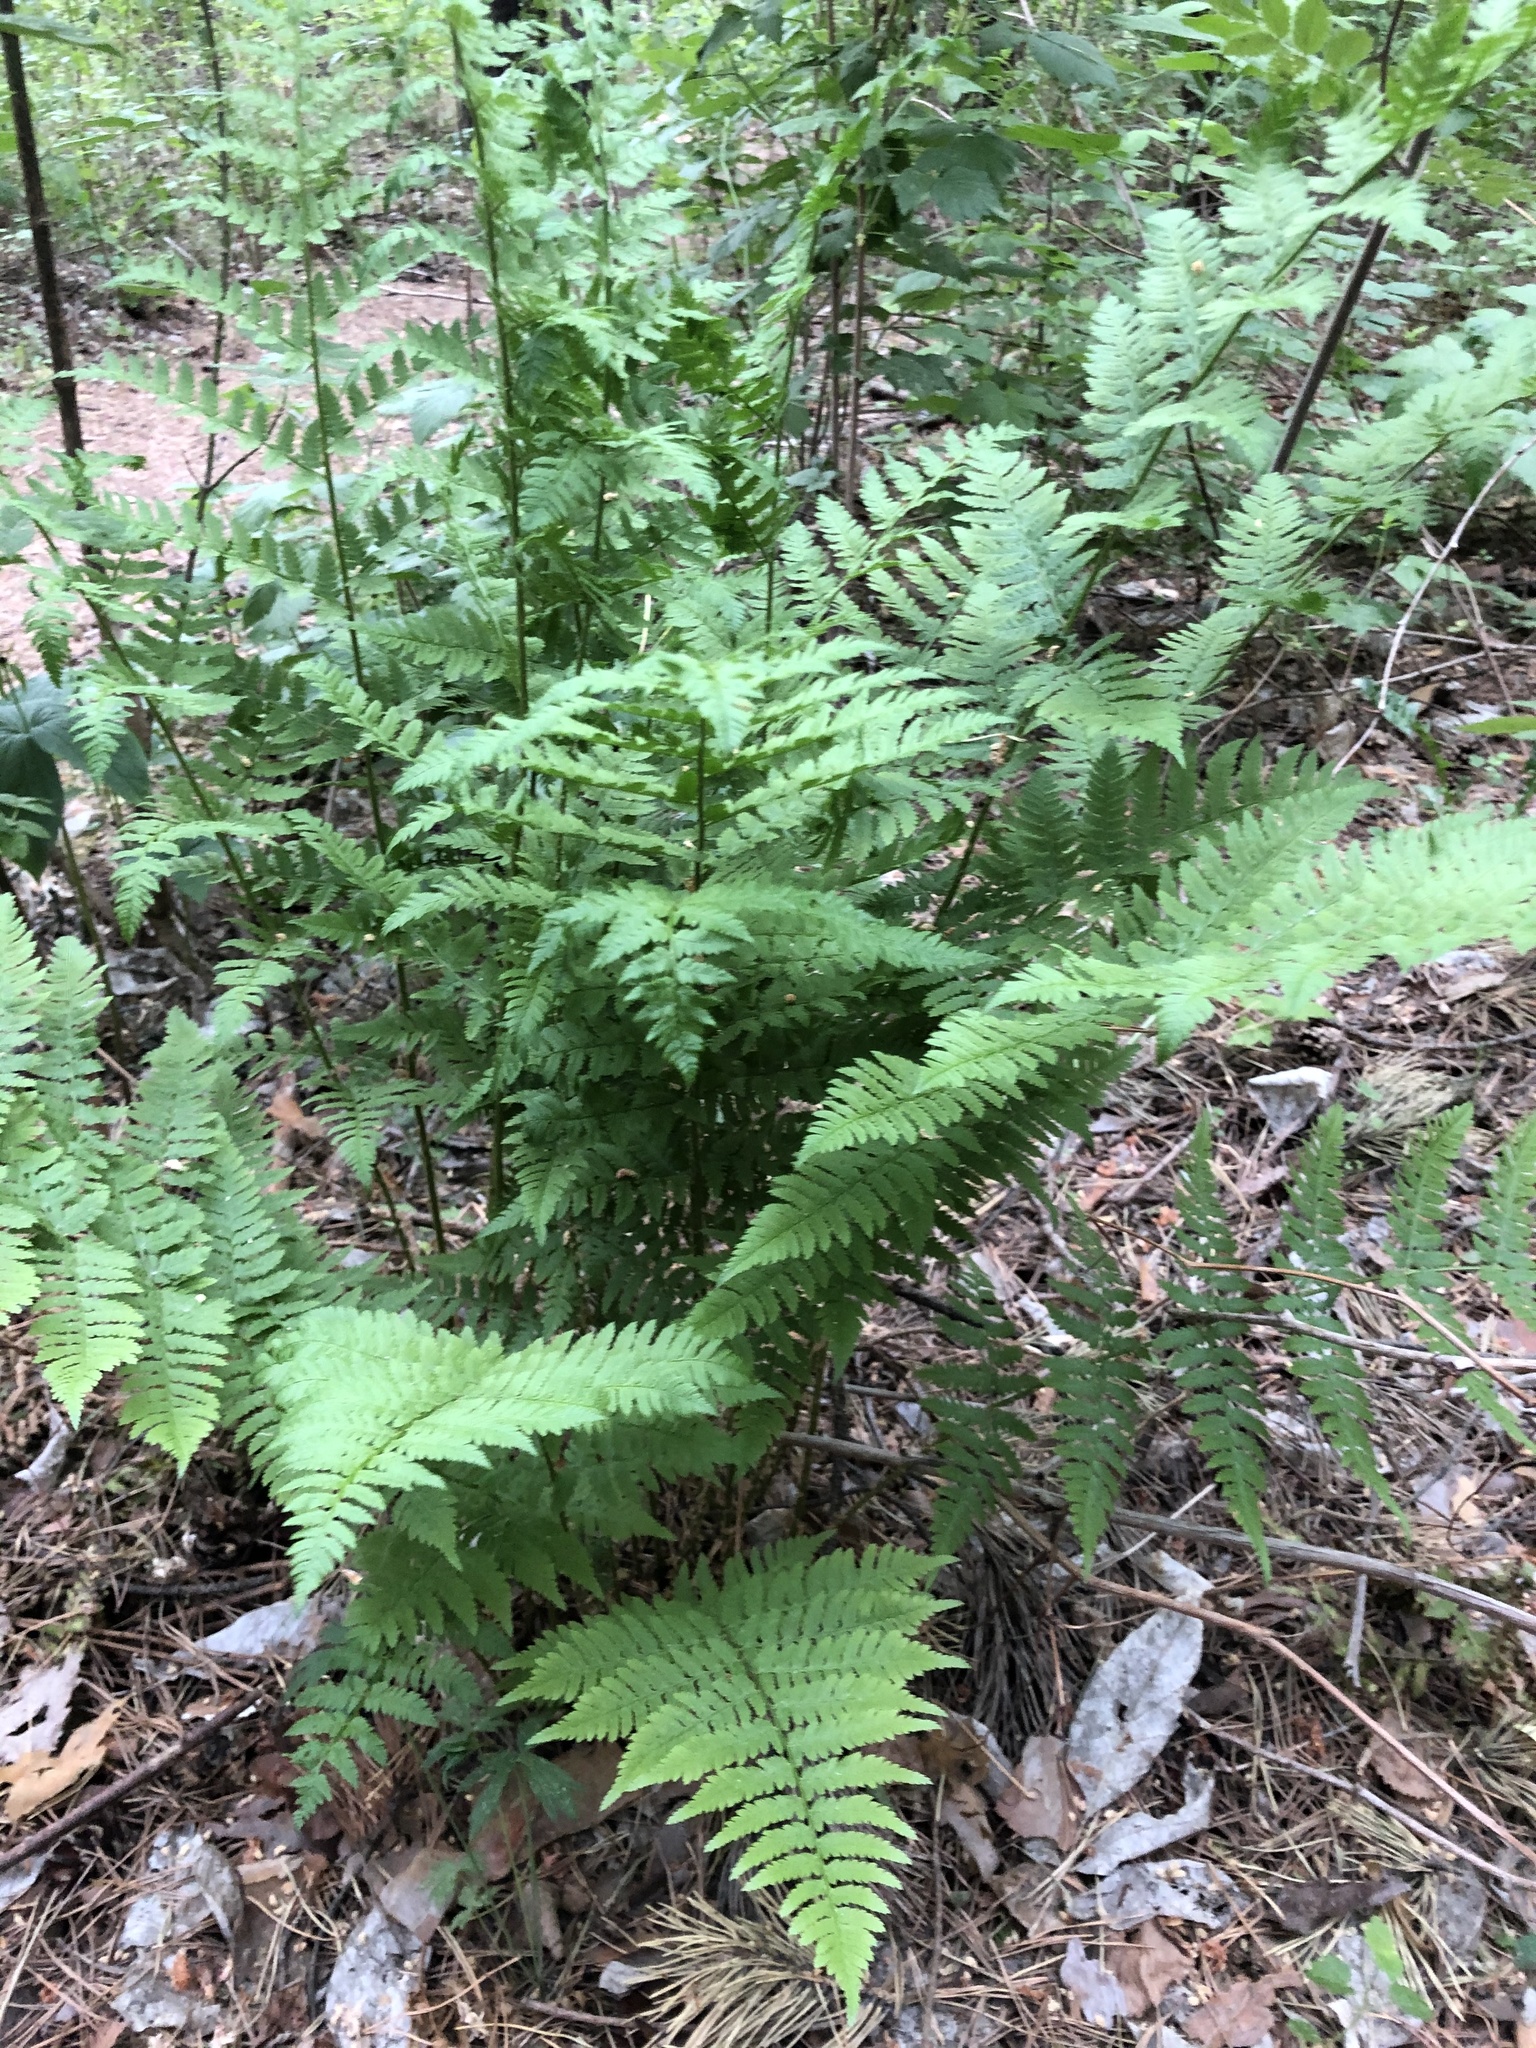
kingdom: Plantae
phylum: Tracheophyta
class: Polypodiopsida
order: Polypodiales
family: Dryopteridaceae
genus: Dryopteris
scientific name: Dryopteris carthusiana
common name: Narrow buckler-fern
